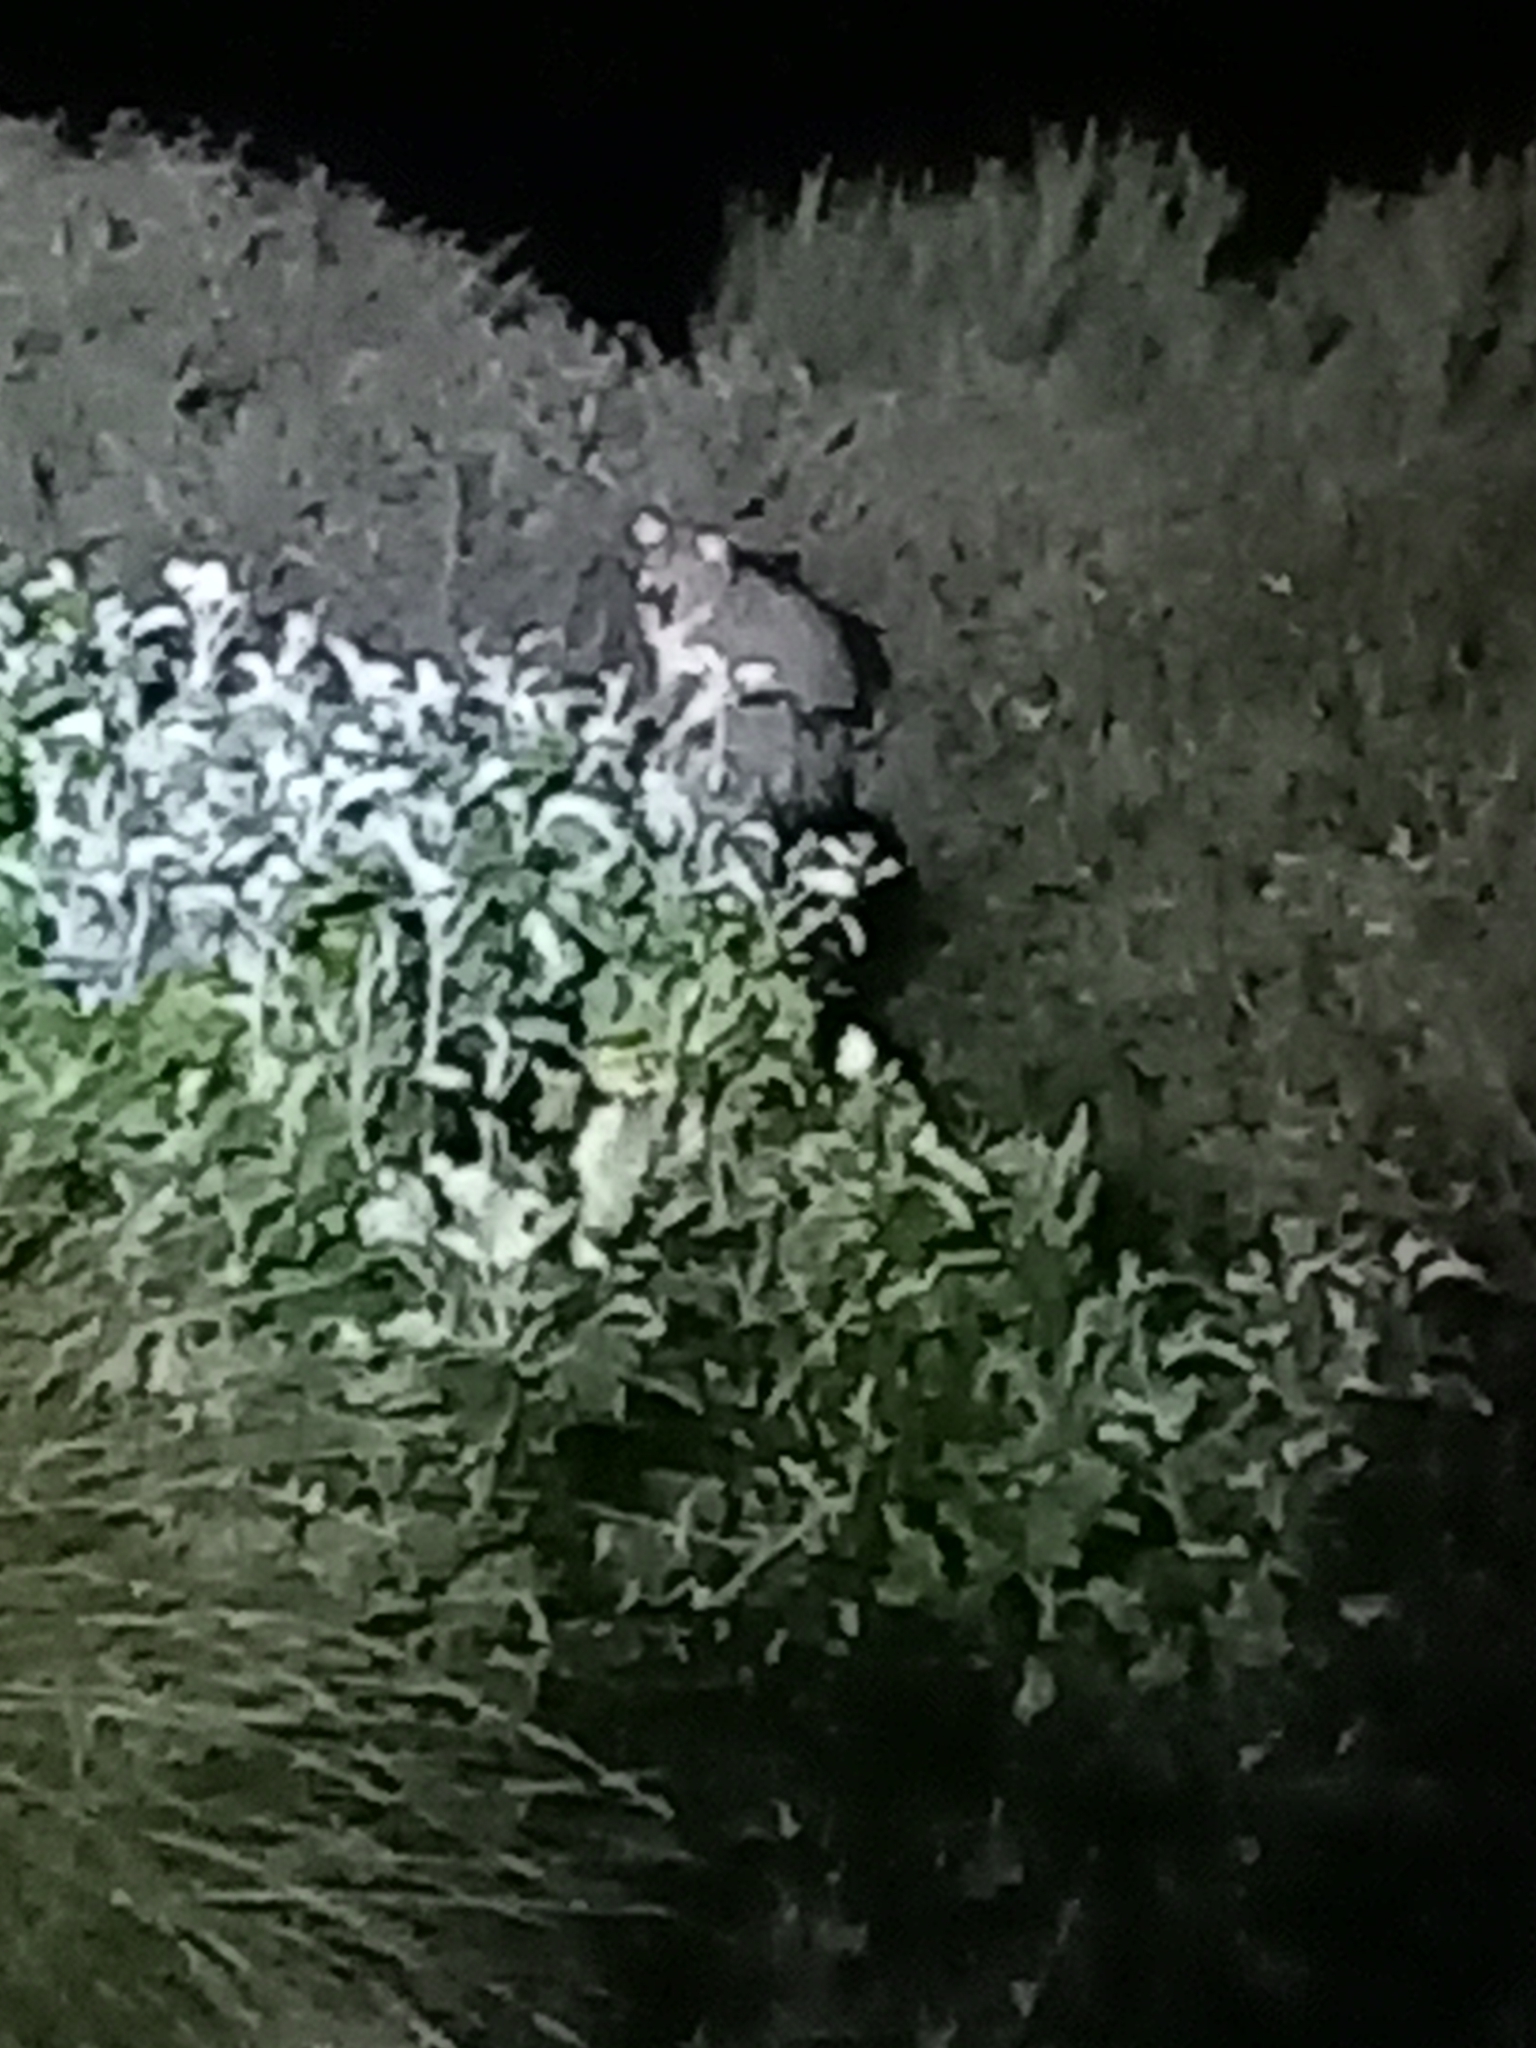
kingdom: Animalia
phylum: Chordata
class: Mammalia
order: Diprotodontia
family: Phalangeridae
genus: Trichosurus
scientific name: Trichosurus vulpecula
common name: Common brushtail
